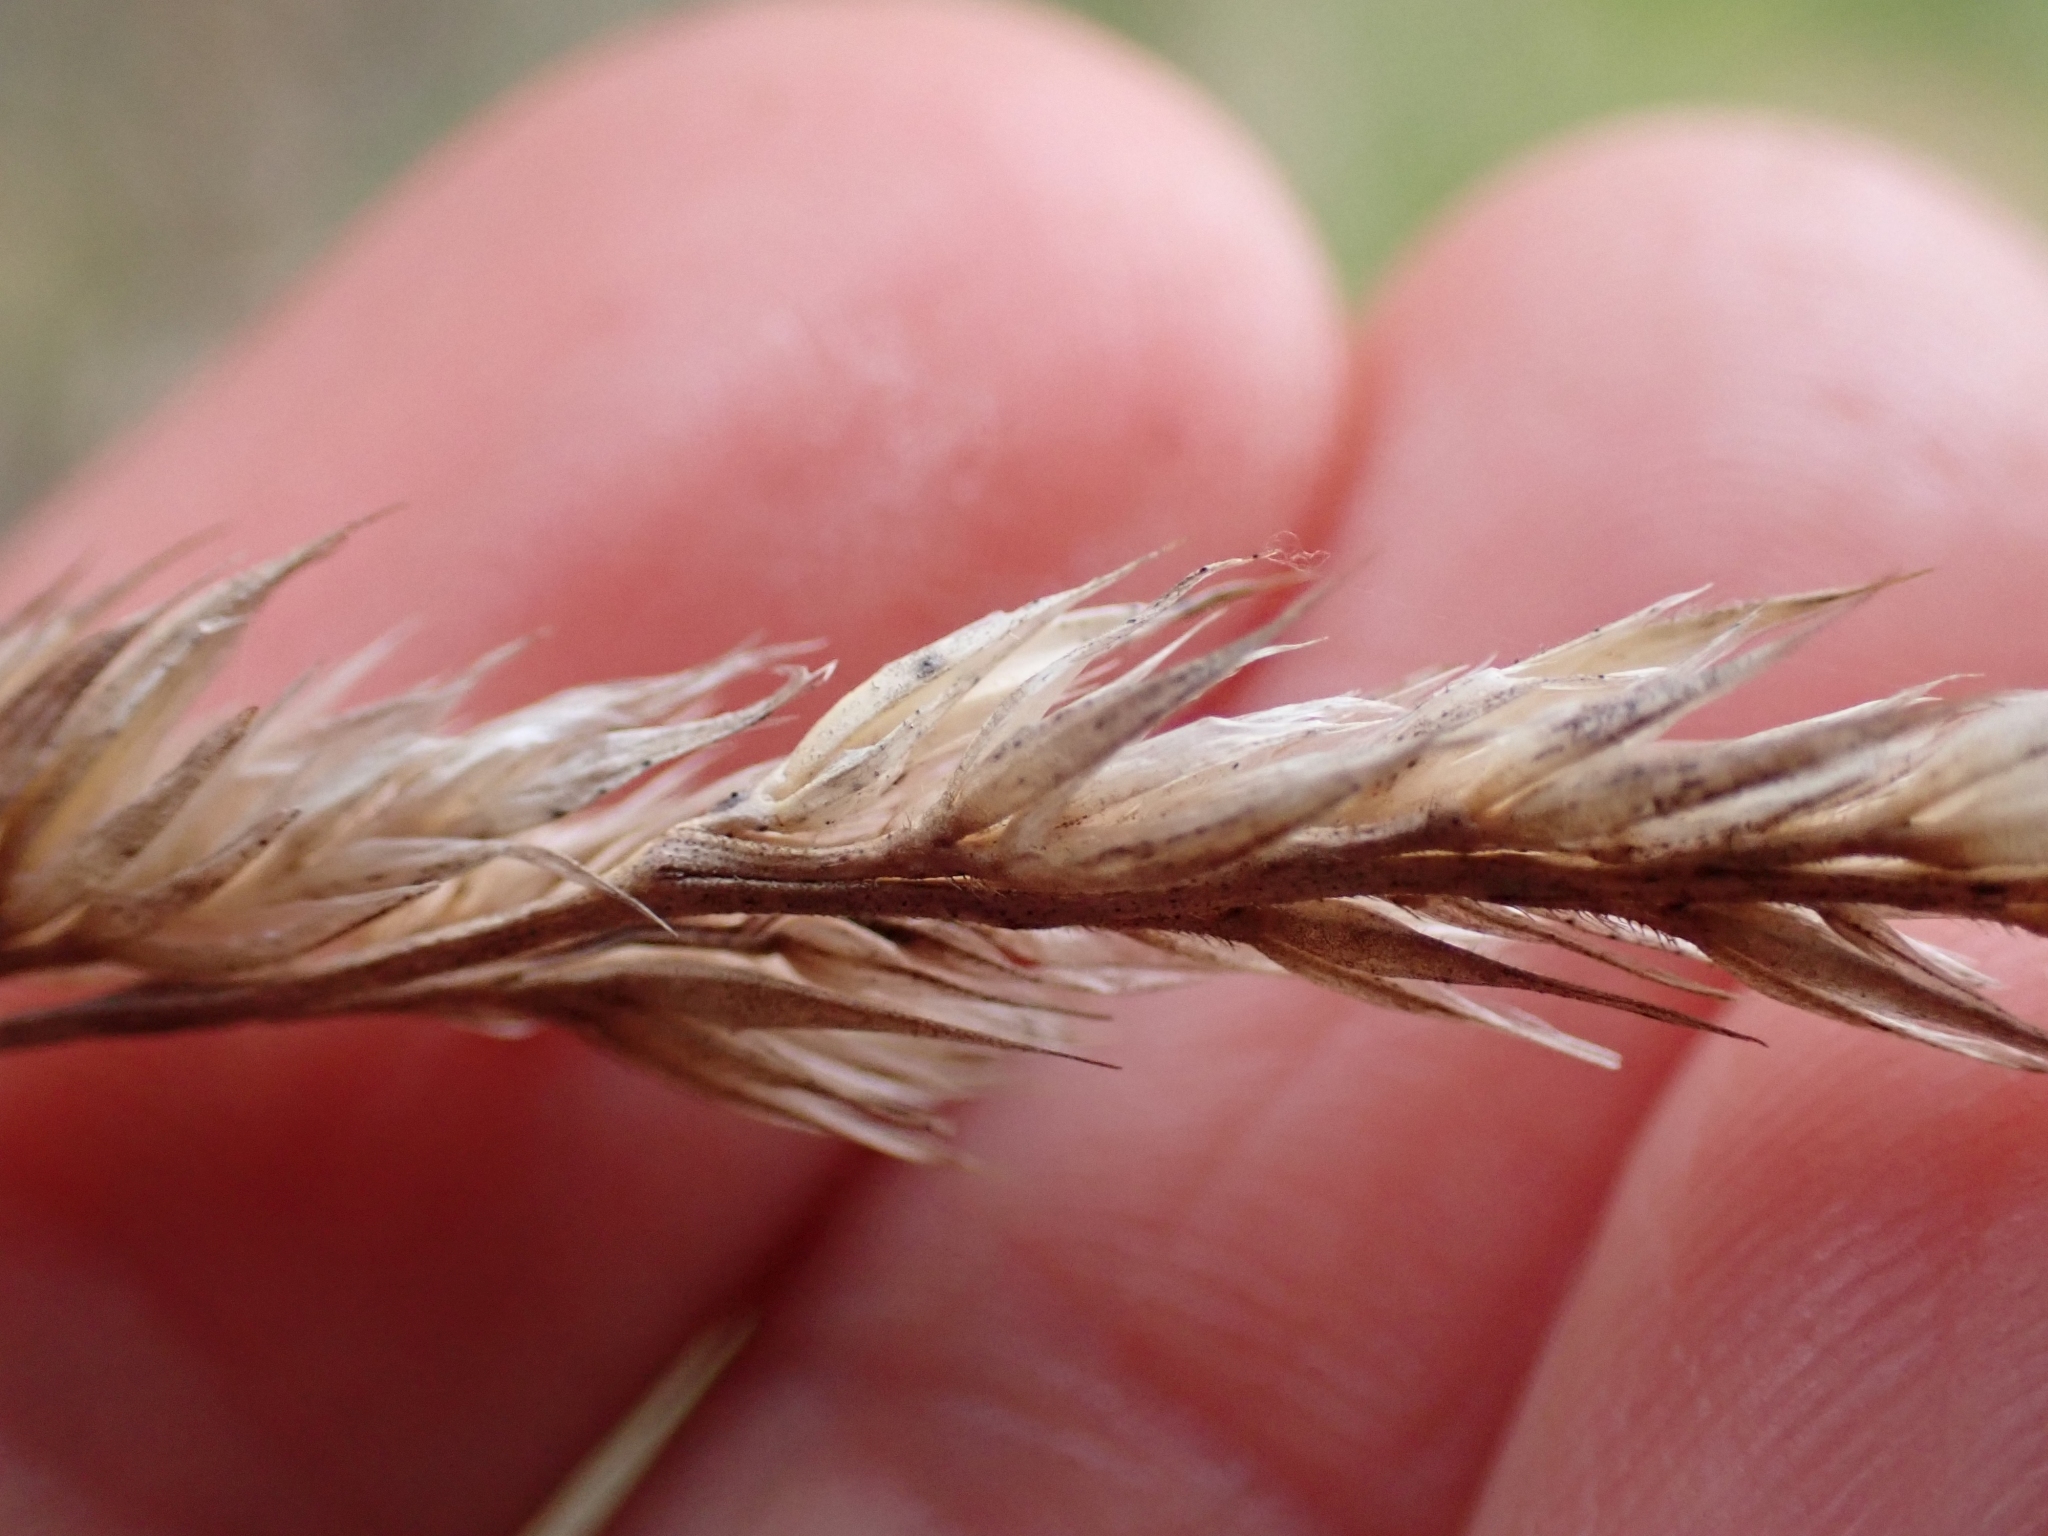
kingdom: Plantae
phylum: Tracheophyta
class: Liliopsida
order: Poales
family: Poaceae
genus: Dactylis
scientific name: Dactylis glomerata
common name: Orchardgrass
